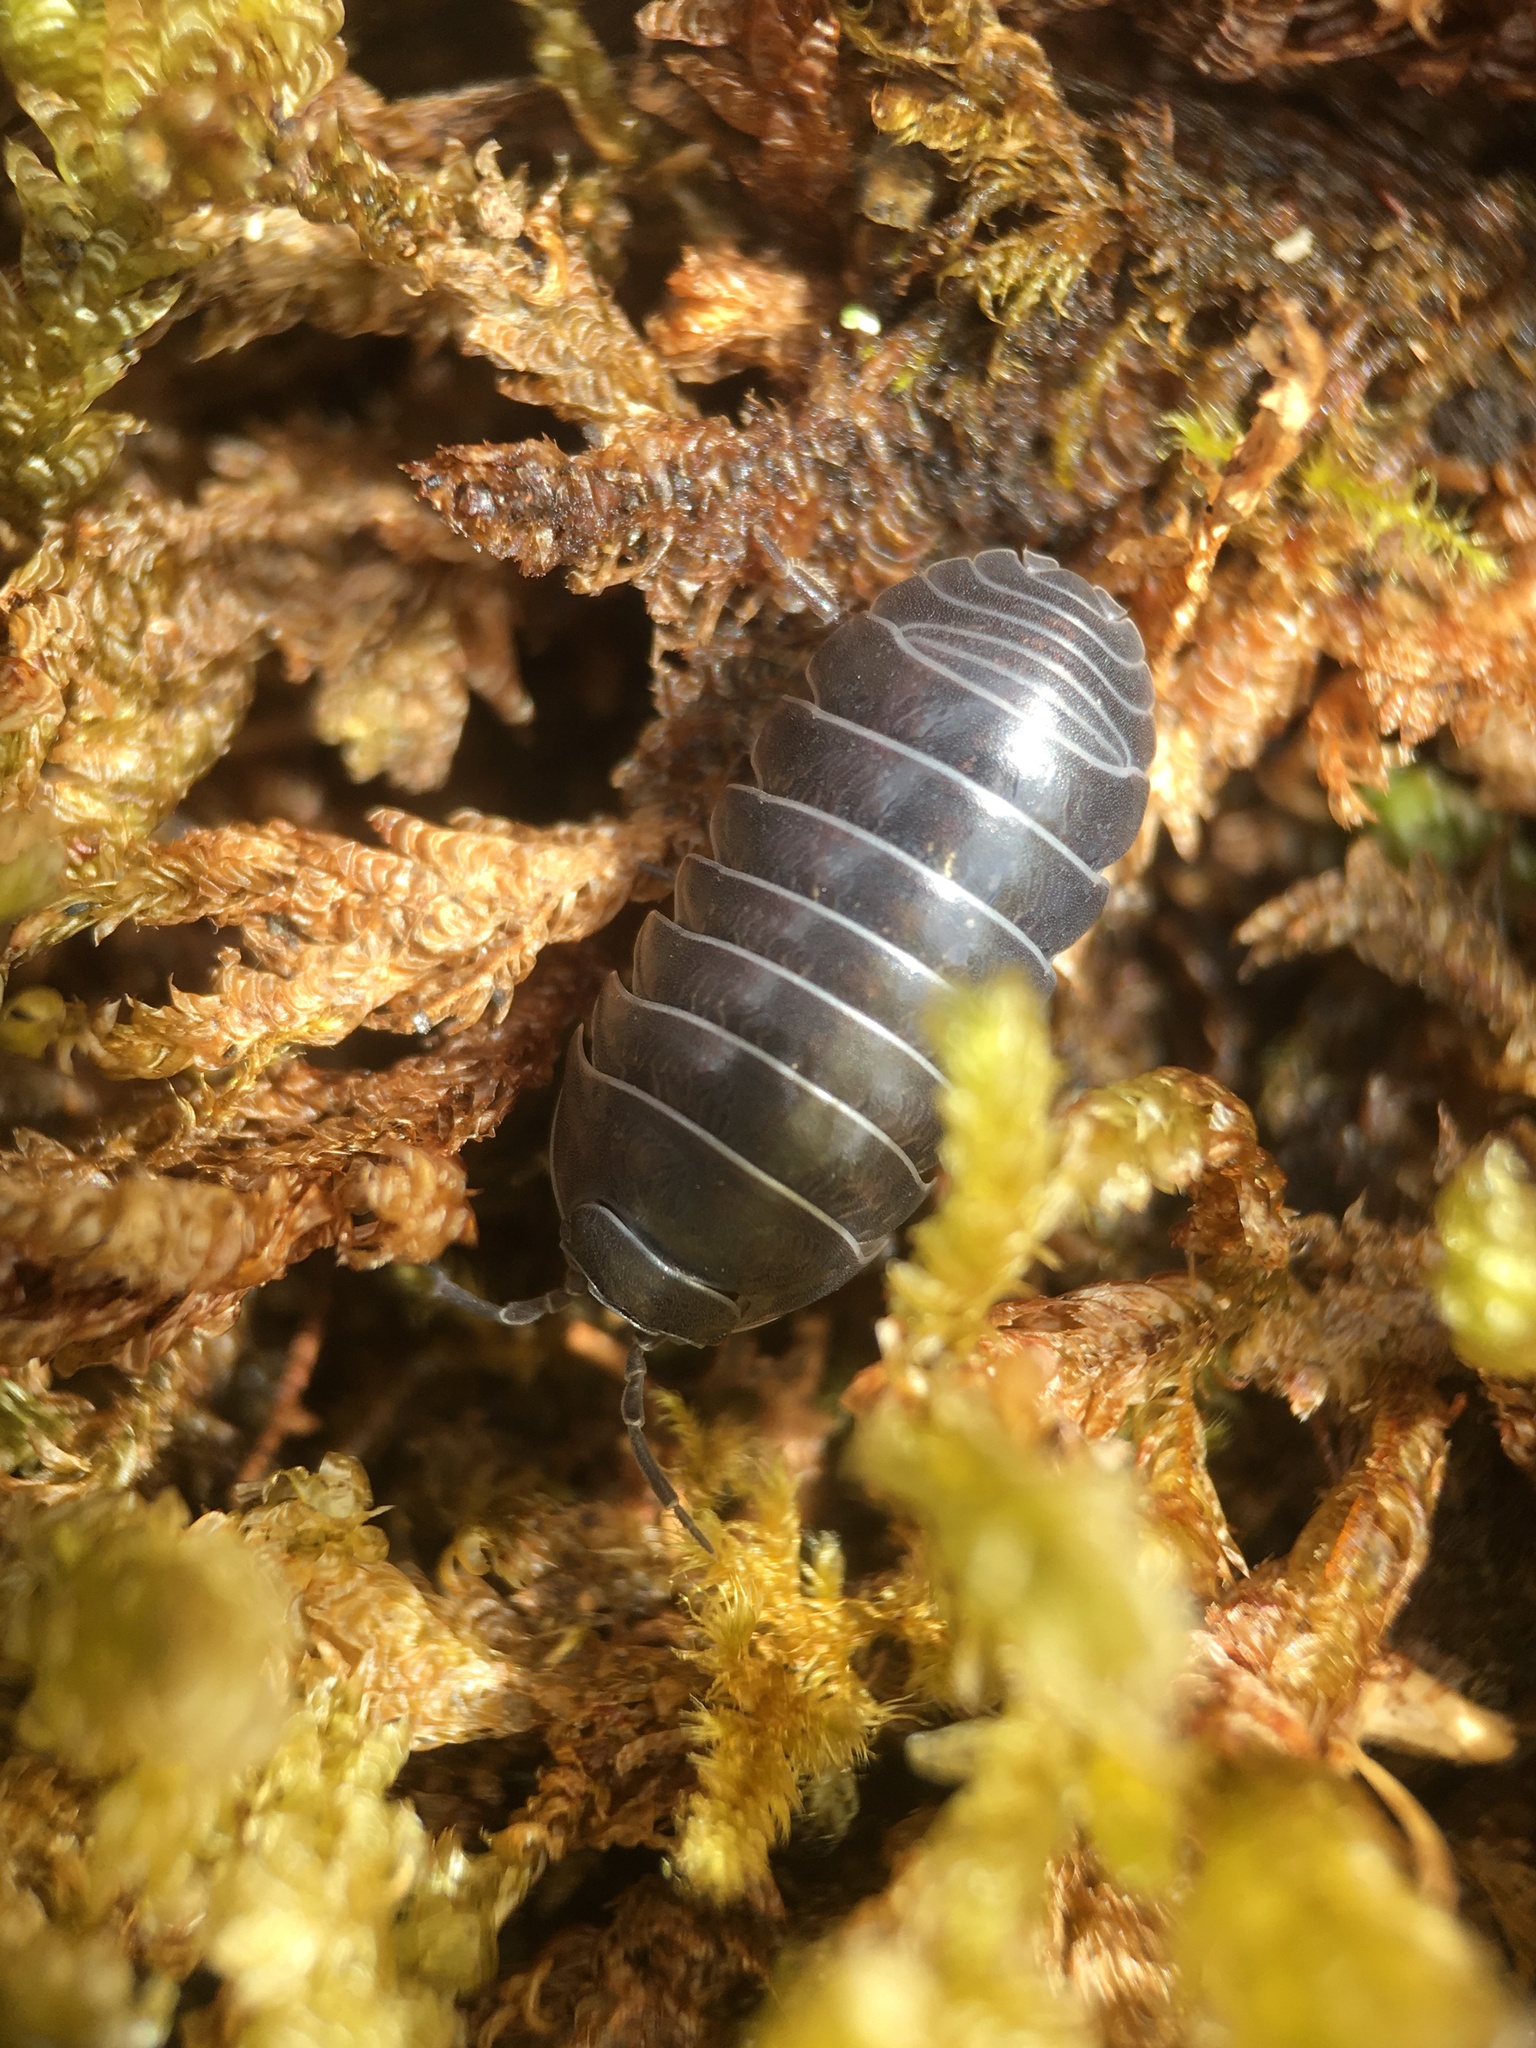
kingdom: Animalia
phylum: Arthropoda
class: Malacostraca
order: Isopoda
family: Armadillidiidae
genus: Armadillidium
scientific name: Armadillidium vulgare
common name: Common pill woodlouse
